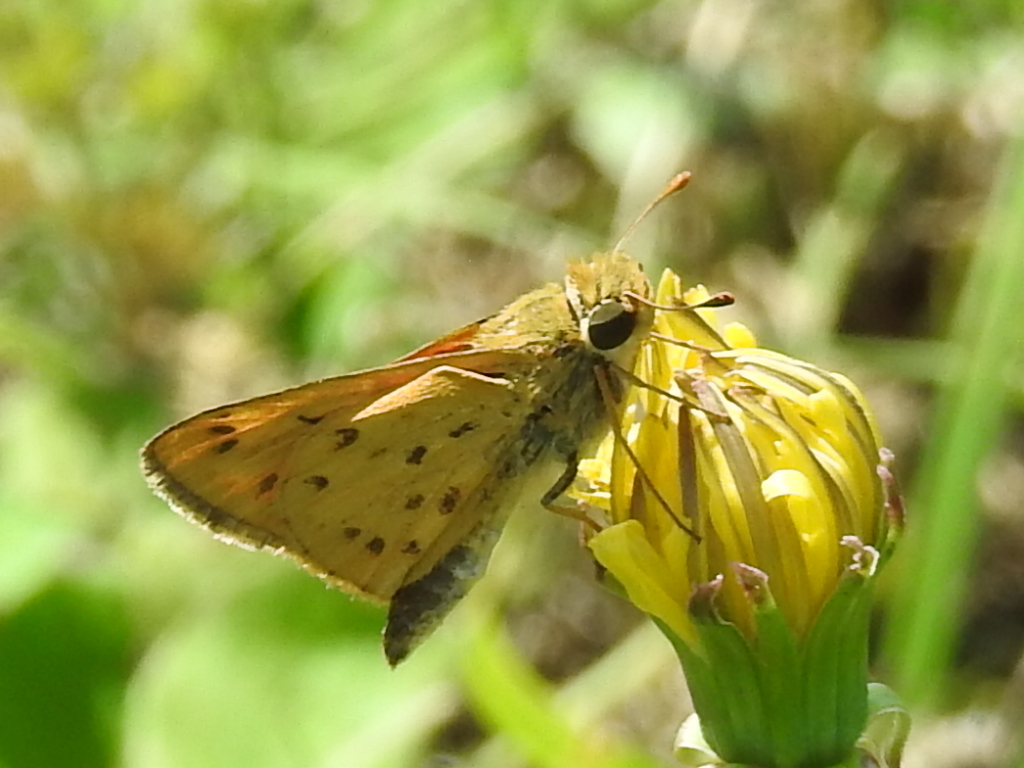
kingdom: Animalia
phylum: Arthropoda
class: Insecta
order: Lepidoptera
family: Hesperiidae
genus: Hylephila
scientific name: Hylephila phyleus
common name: Fiery skipper
